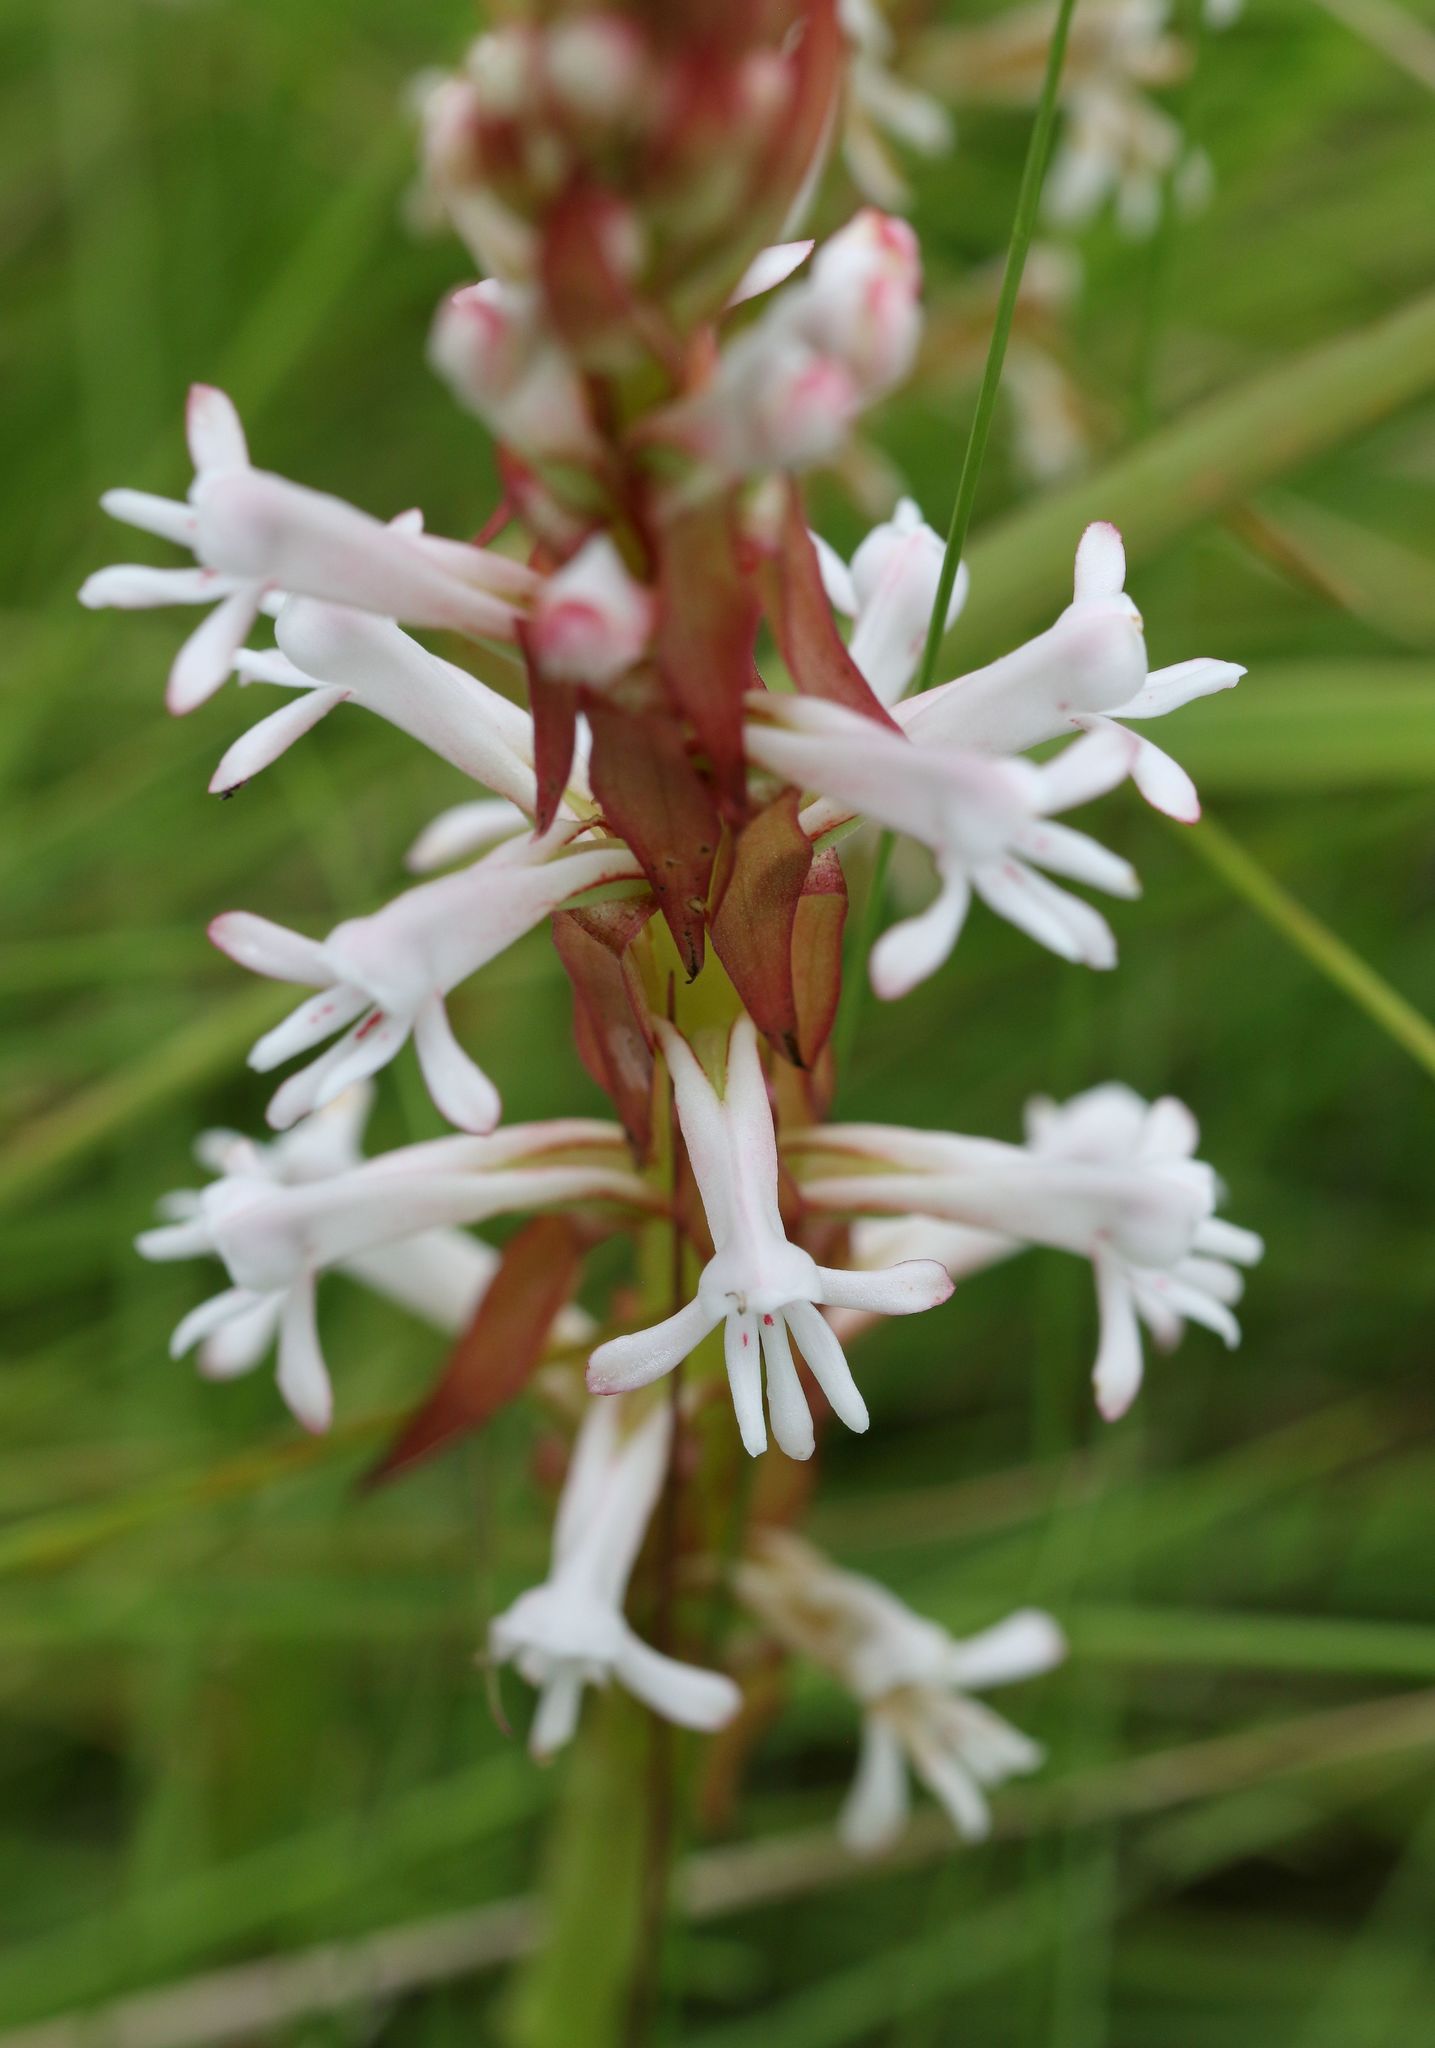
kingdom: Plantae
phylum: Tracheophyta
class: Liliopsida
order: Asparagales
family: Orchidaceae
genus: Satyrium
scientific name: Satyrium macrophyllum
